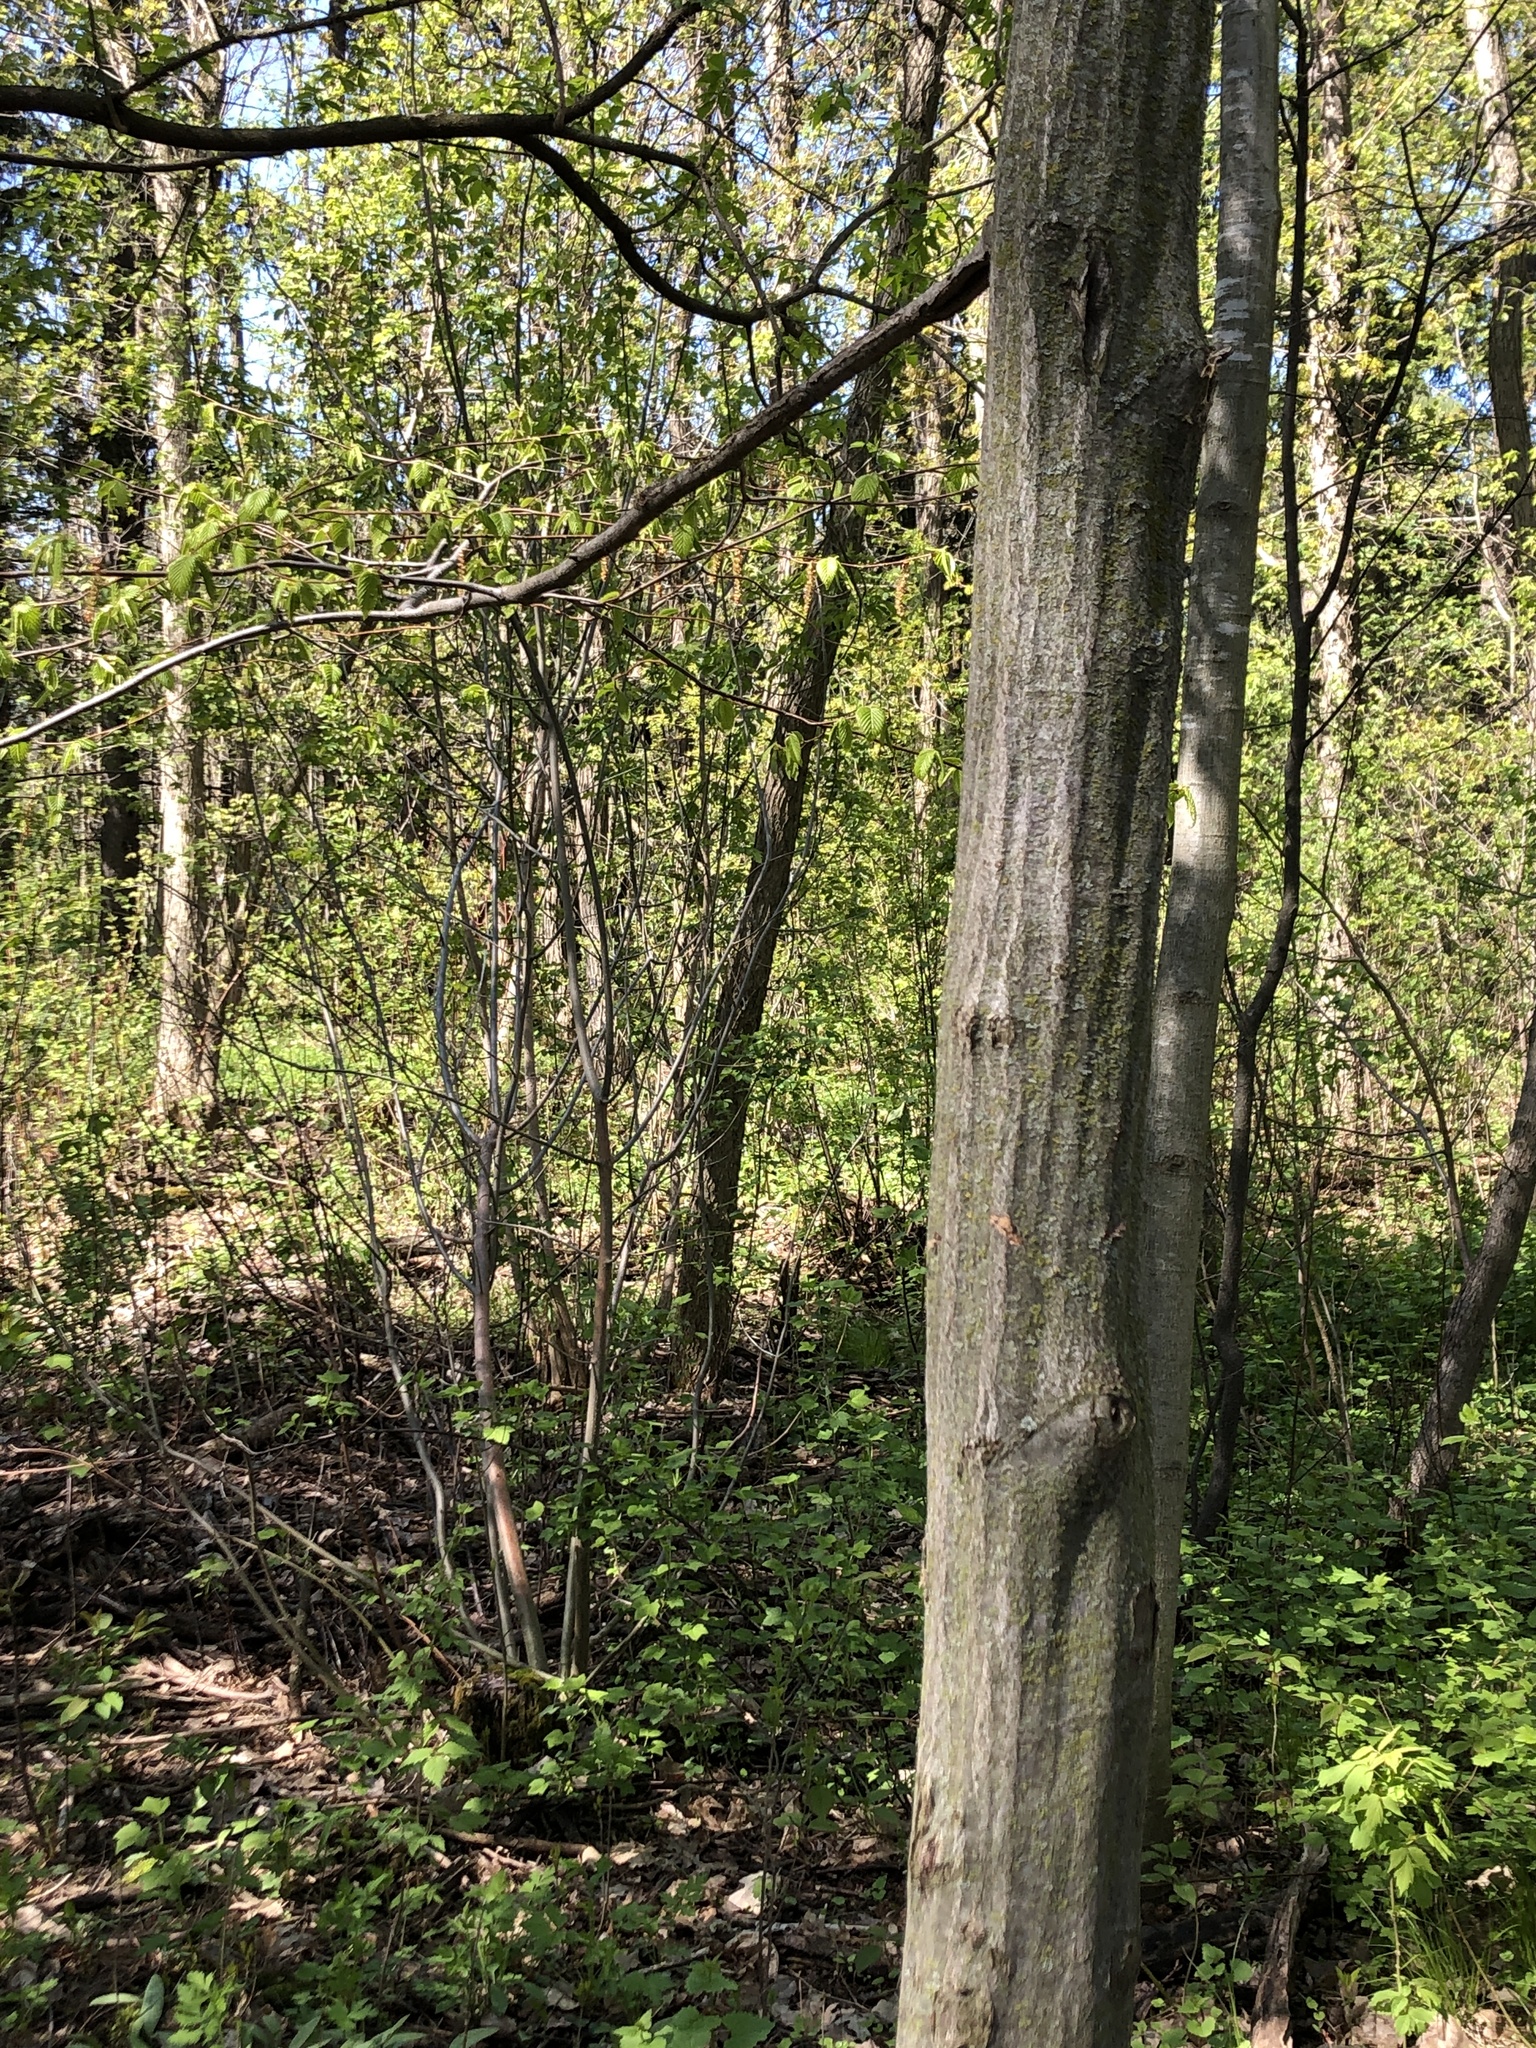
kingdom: Plantae
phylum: Tracheophyta
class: Magnoliopsida
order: Fagales
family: Betulaceae
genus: Carpinus
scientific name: Carpinus caroliniana
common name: American hornbeam
